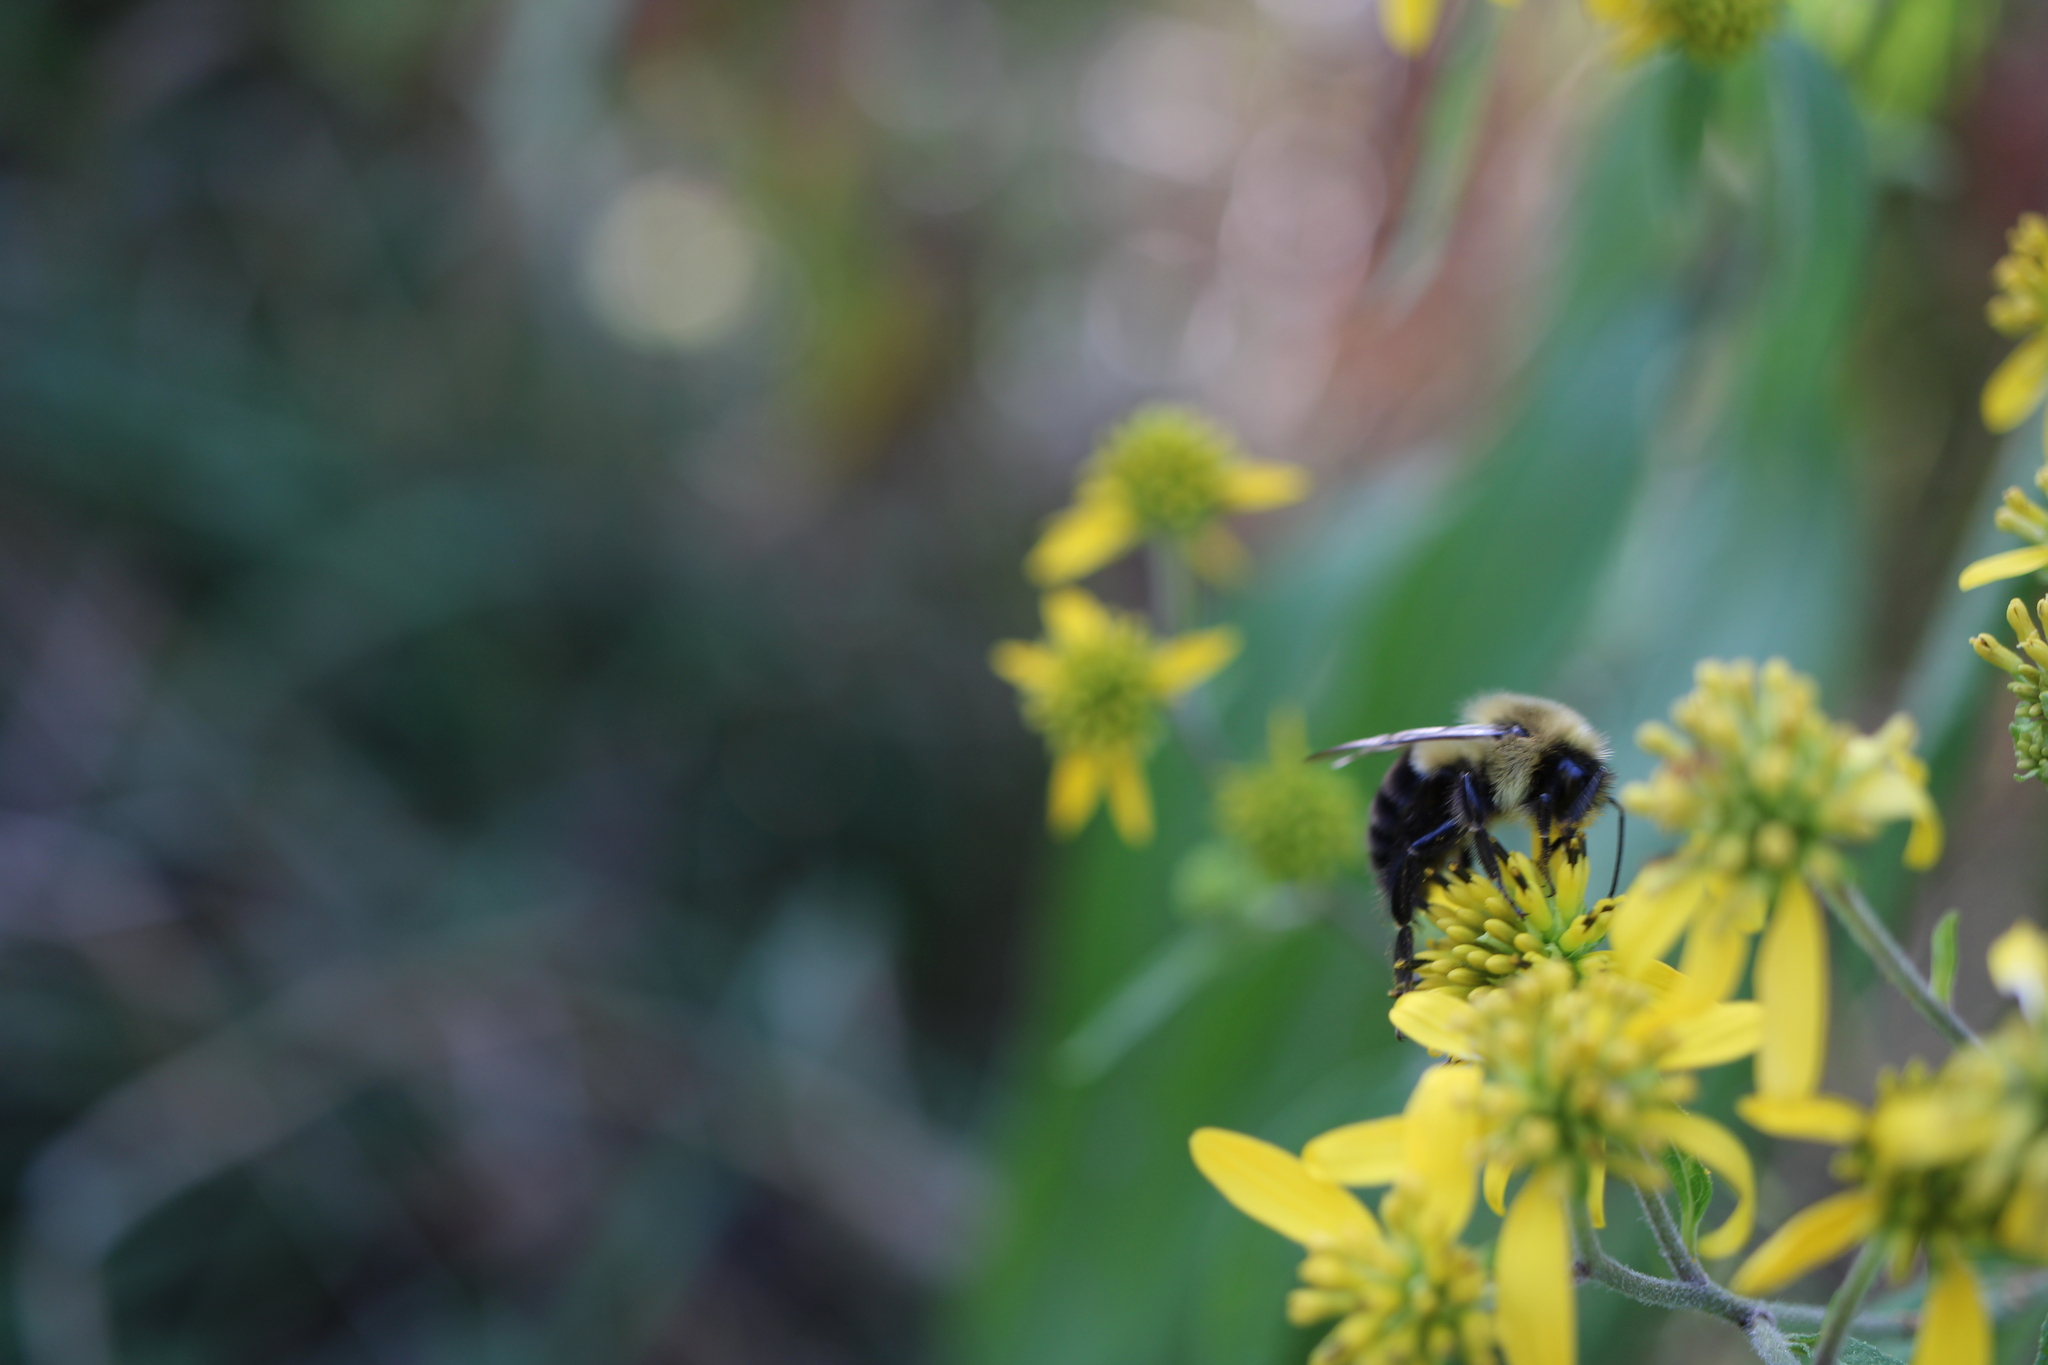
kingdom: Animalia
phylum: Arthropoda
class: Insecta
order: Hymenoptera
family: Apidae
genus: Bombus
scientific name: Bombus impatiens
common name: Common eastern bumble bee
